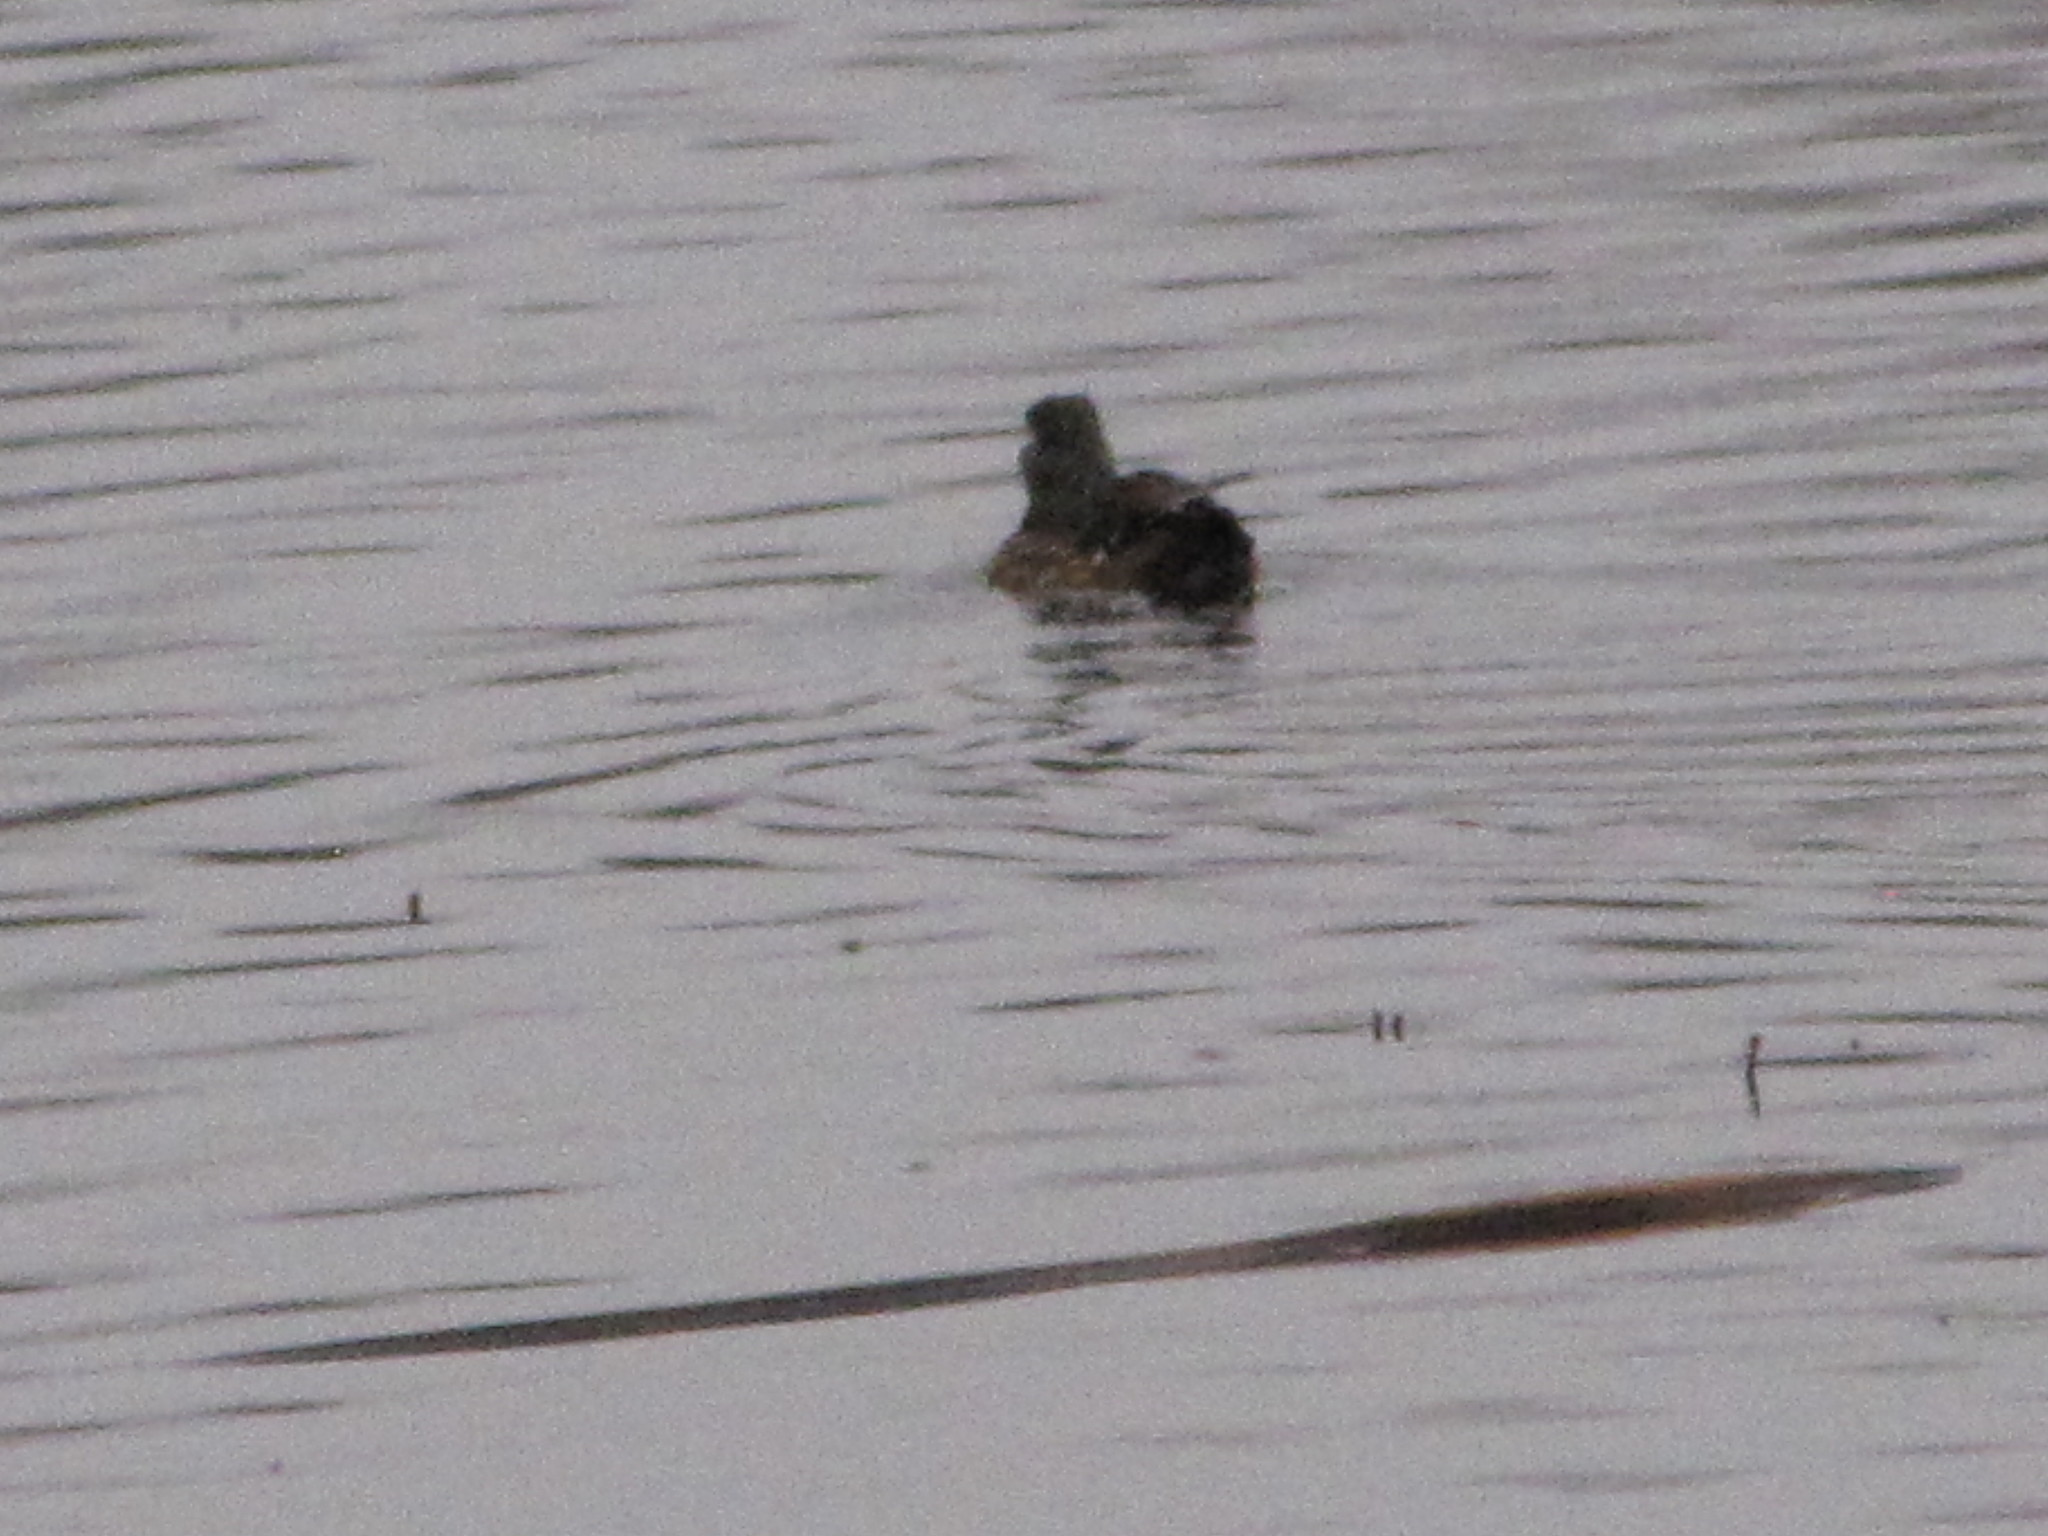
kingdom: Animalia
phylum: Chordata
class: Aves
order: Anseriformes
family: Anatidae
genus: Aix
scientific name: Aix sponsa
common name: Wood duck
